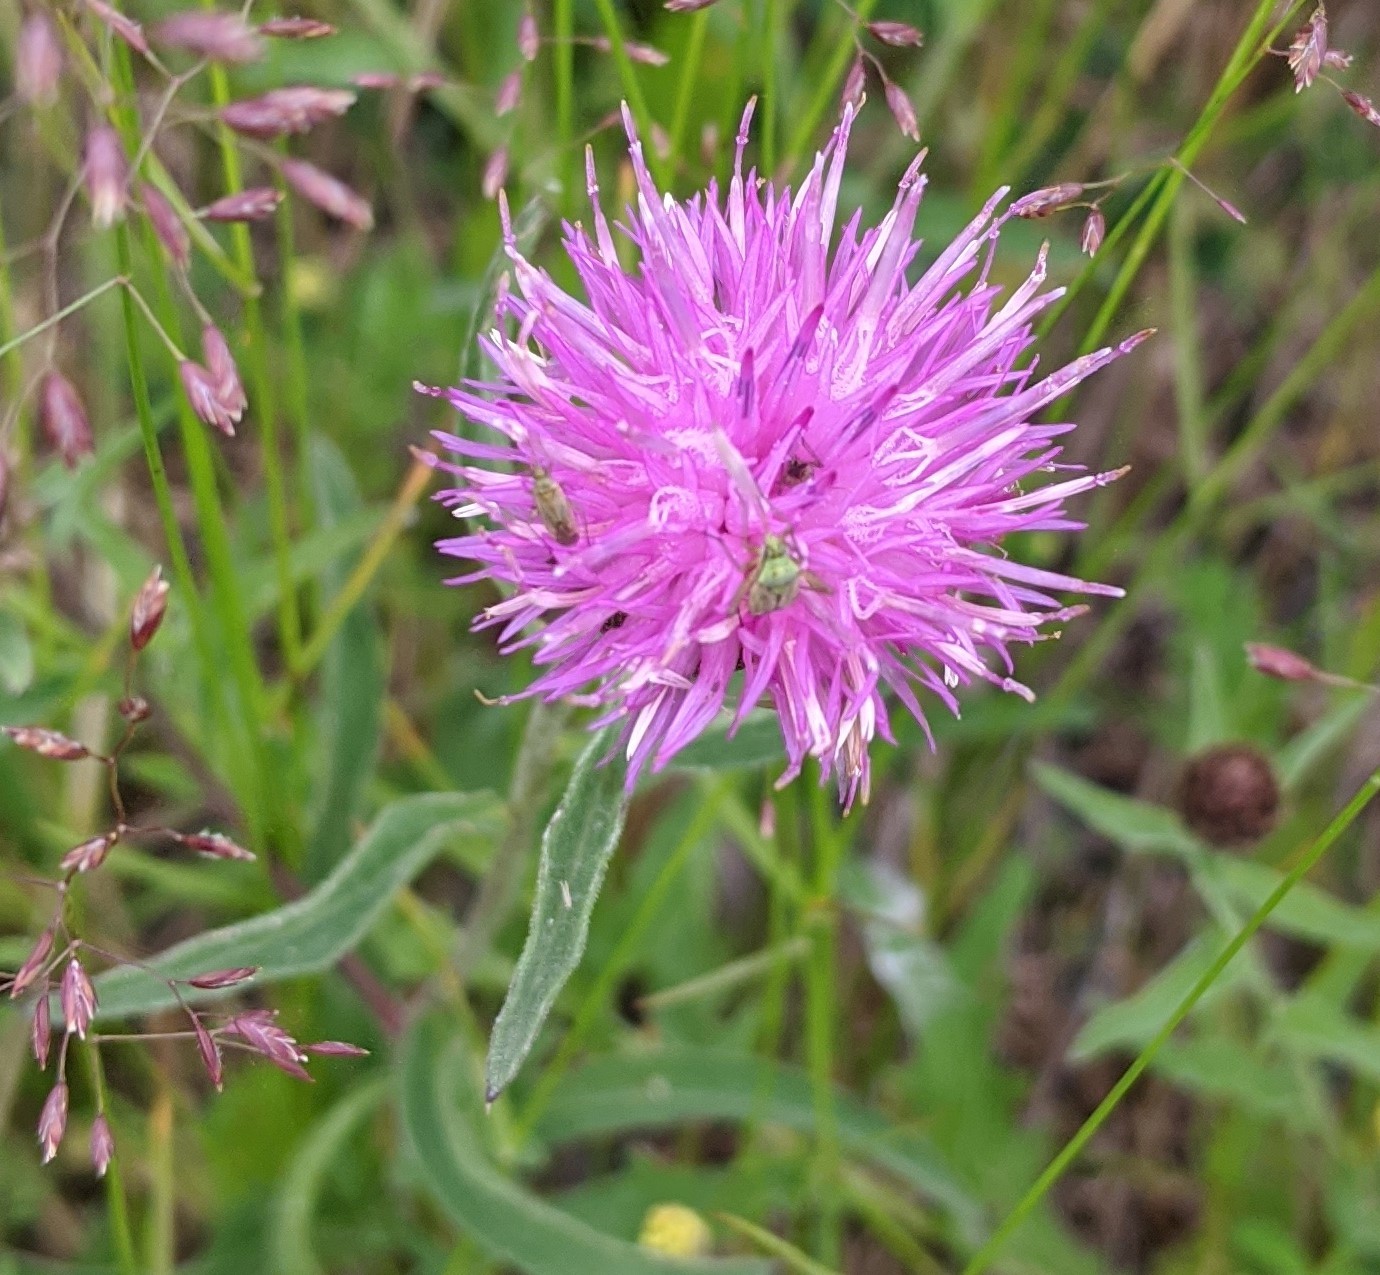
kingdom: Plantae
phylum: Tracheophyta
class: Magnoliopsida
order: Asterales
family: Asteraceae
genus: Centaurea
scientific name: Centaurea nigra
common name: Lesser knapweed
